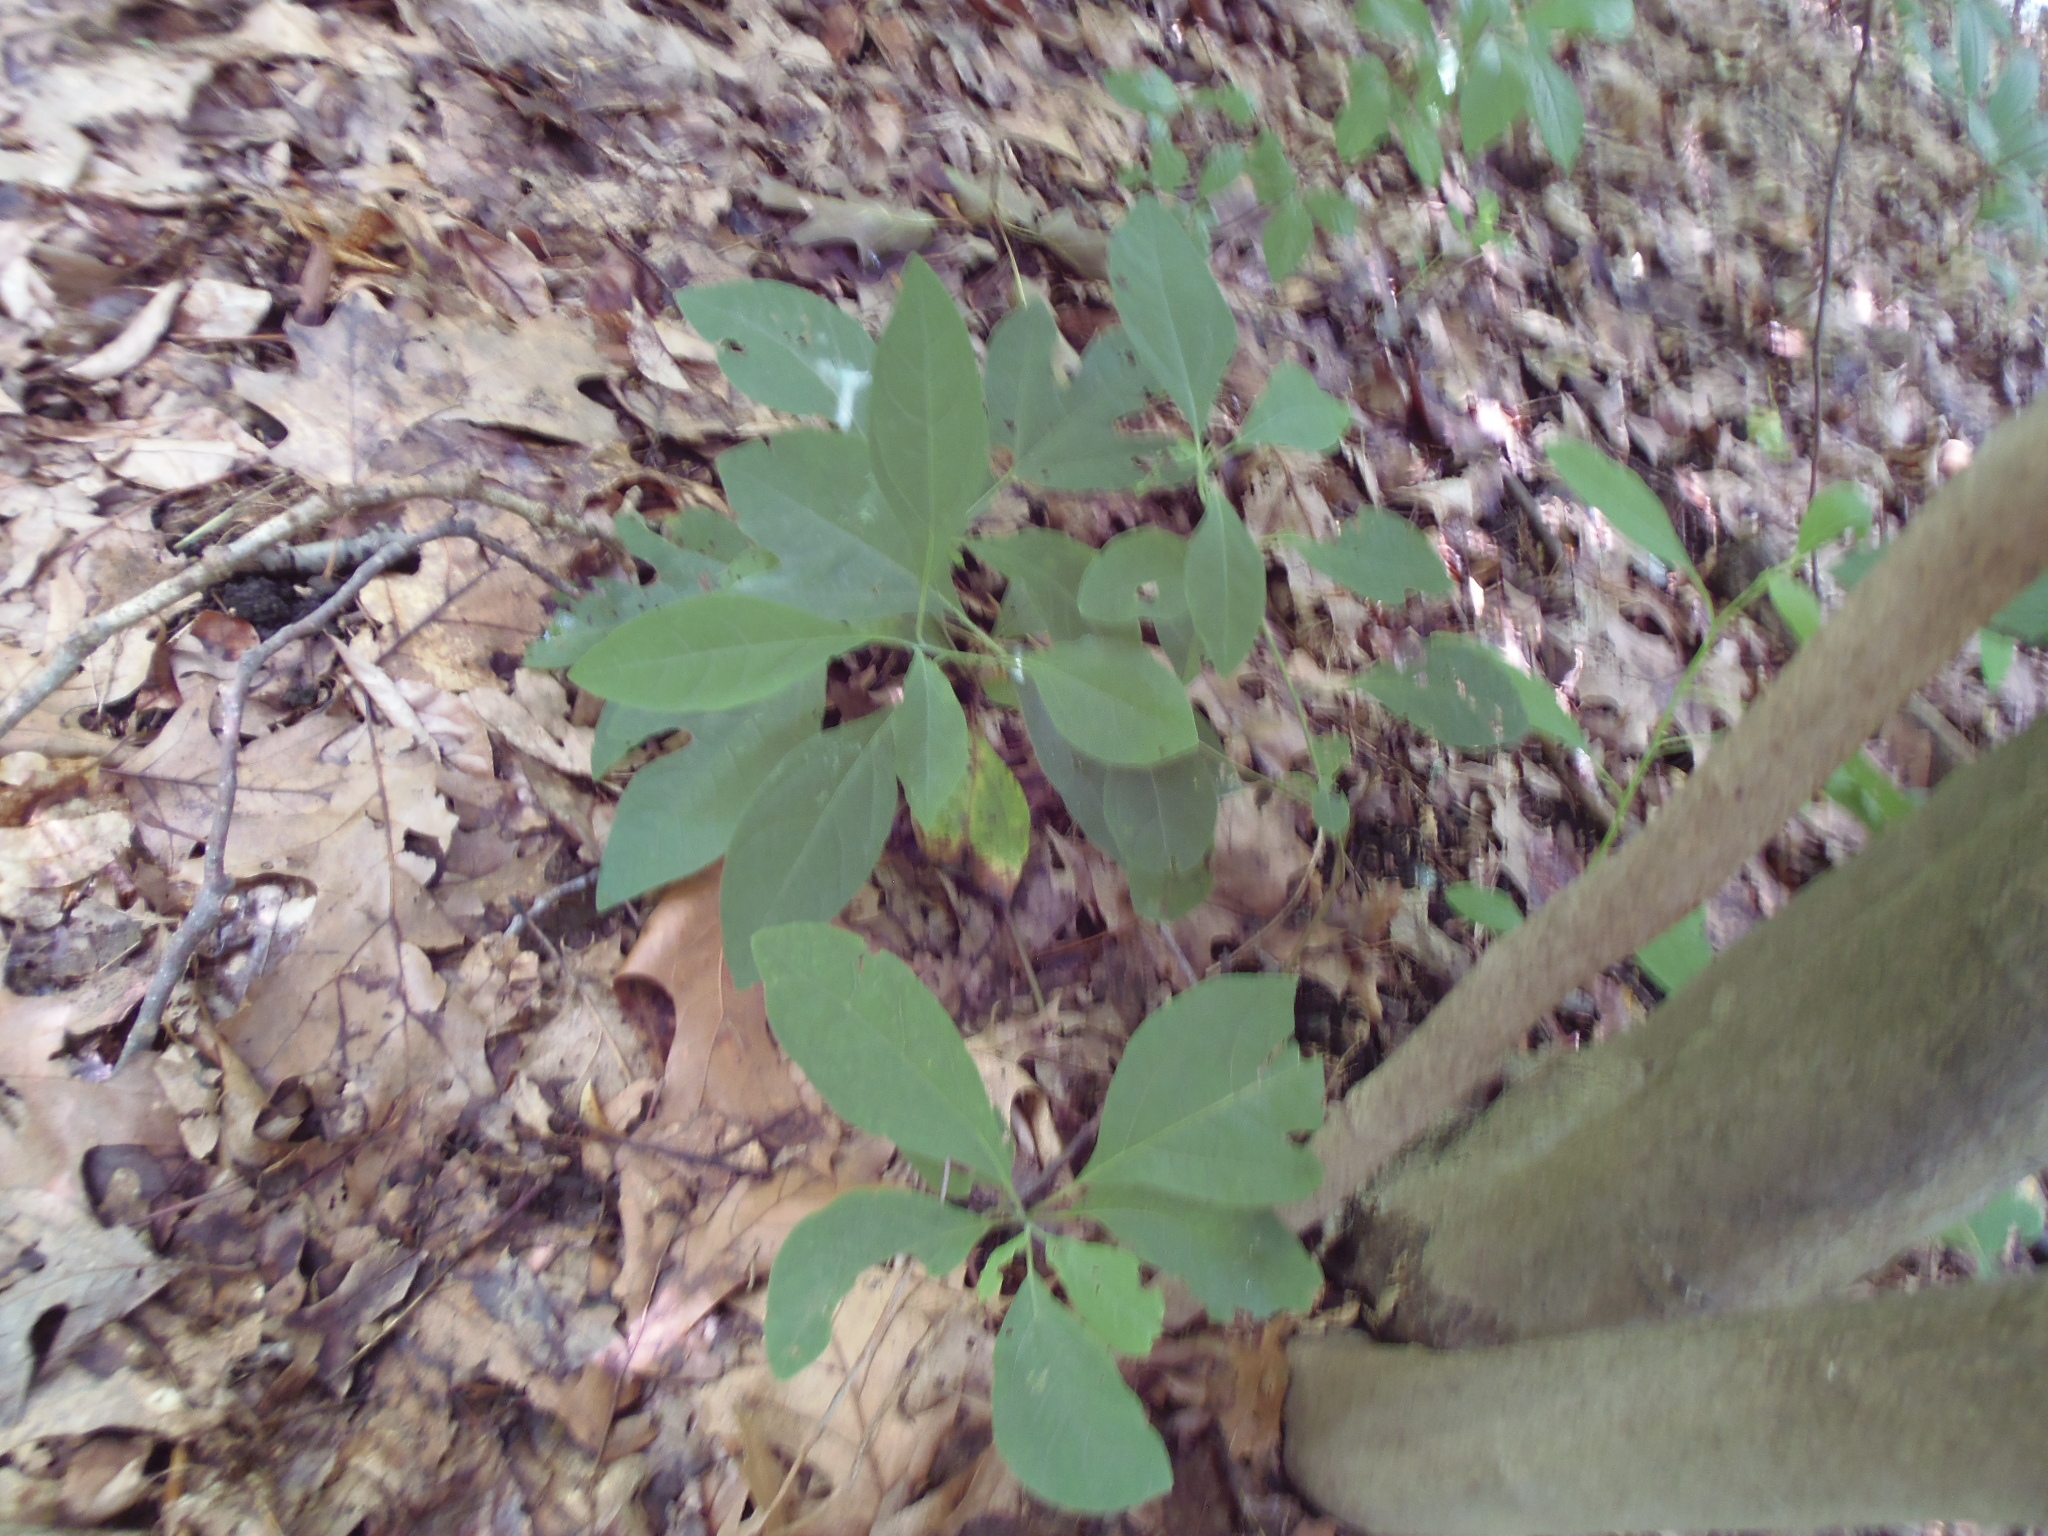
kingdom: Plantae
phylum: Tracheophyta
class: Magnoliopsida
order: Laurales
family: Lauraceae
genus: Sassafras
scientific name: Sassafras albidum
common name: Sassafras
